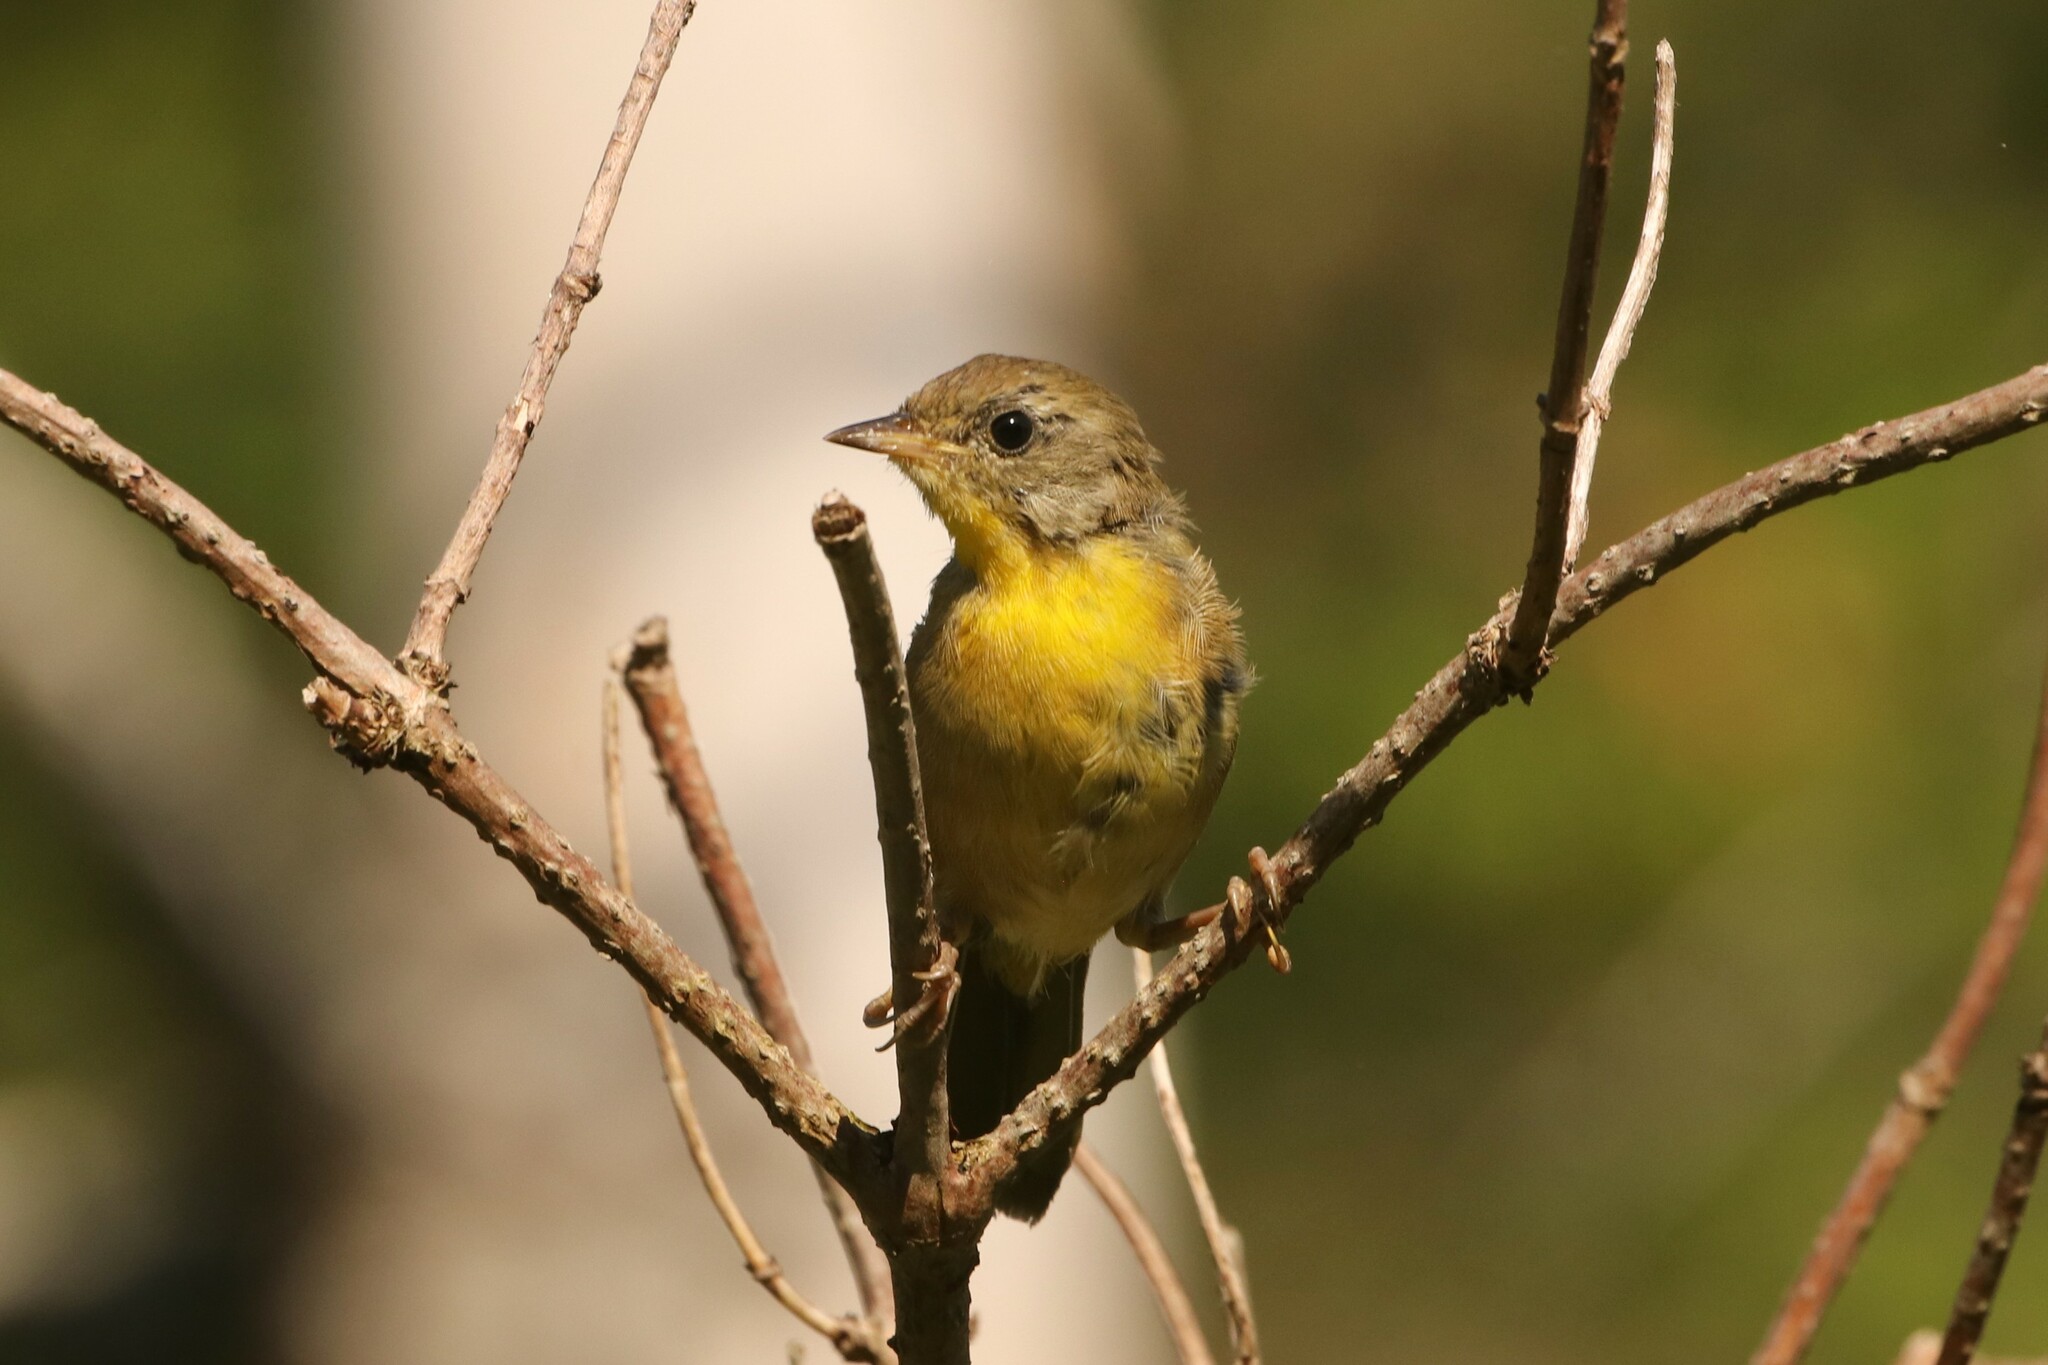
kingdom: Animalia
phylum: Chordata
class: Aves
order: Passeriformes
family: Parulidae
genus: Geothlypis
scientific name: Geothlypis trichas
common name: Common yellowthroat
